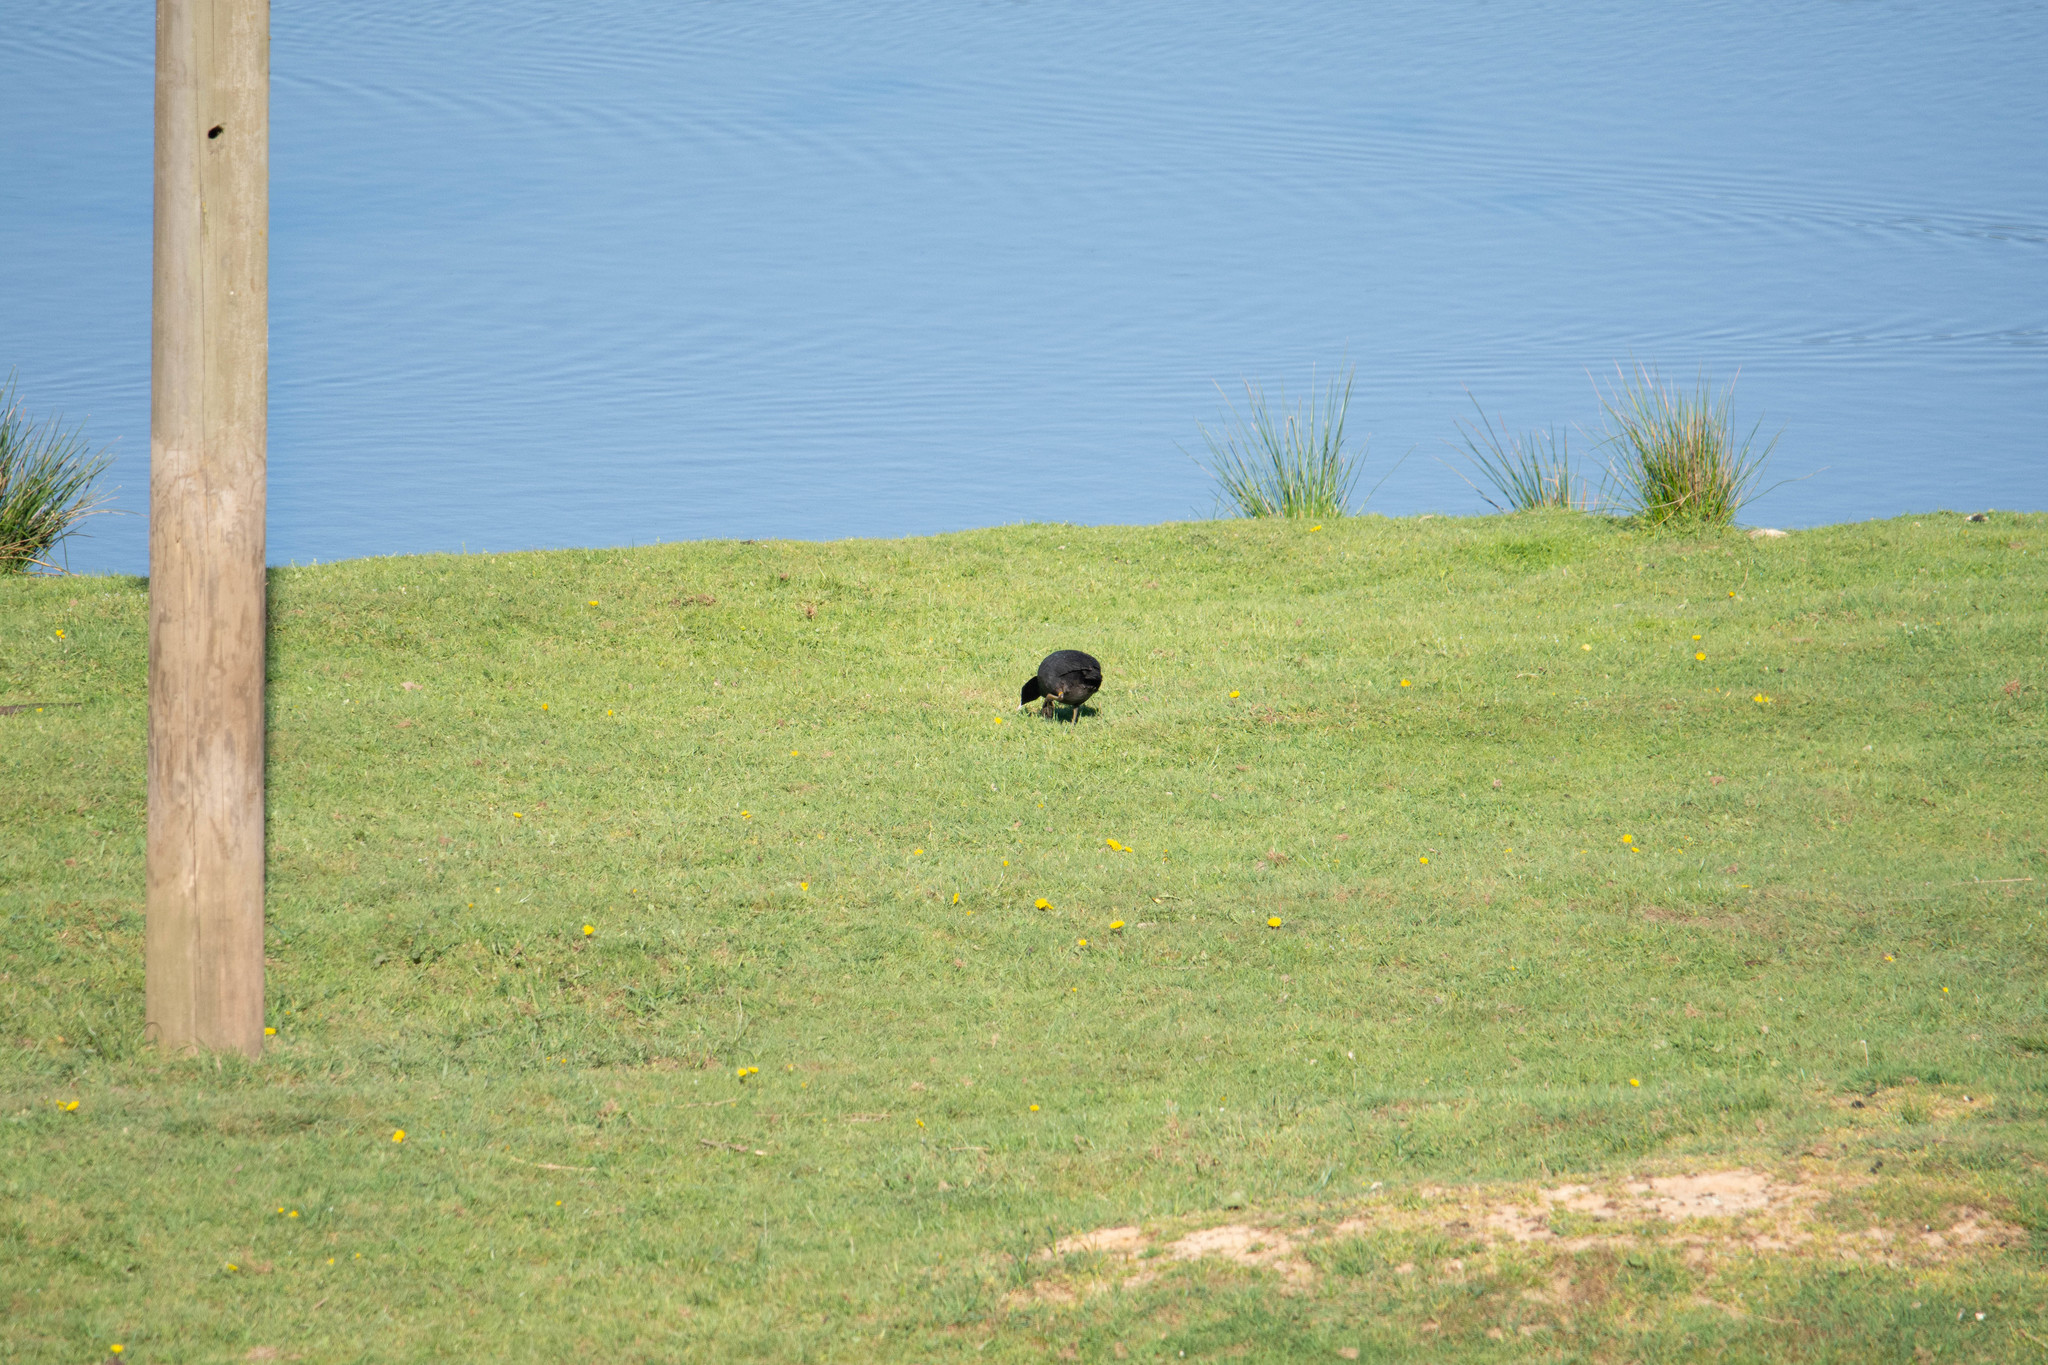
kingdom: Animalia
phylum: Chordata
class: Aves
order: Gruiformes
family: Rallidae
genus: Fulica
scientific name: Fulica atra
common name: Eurasian coot
